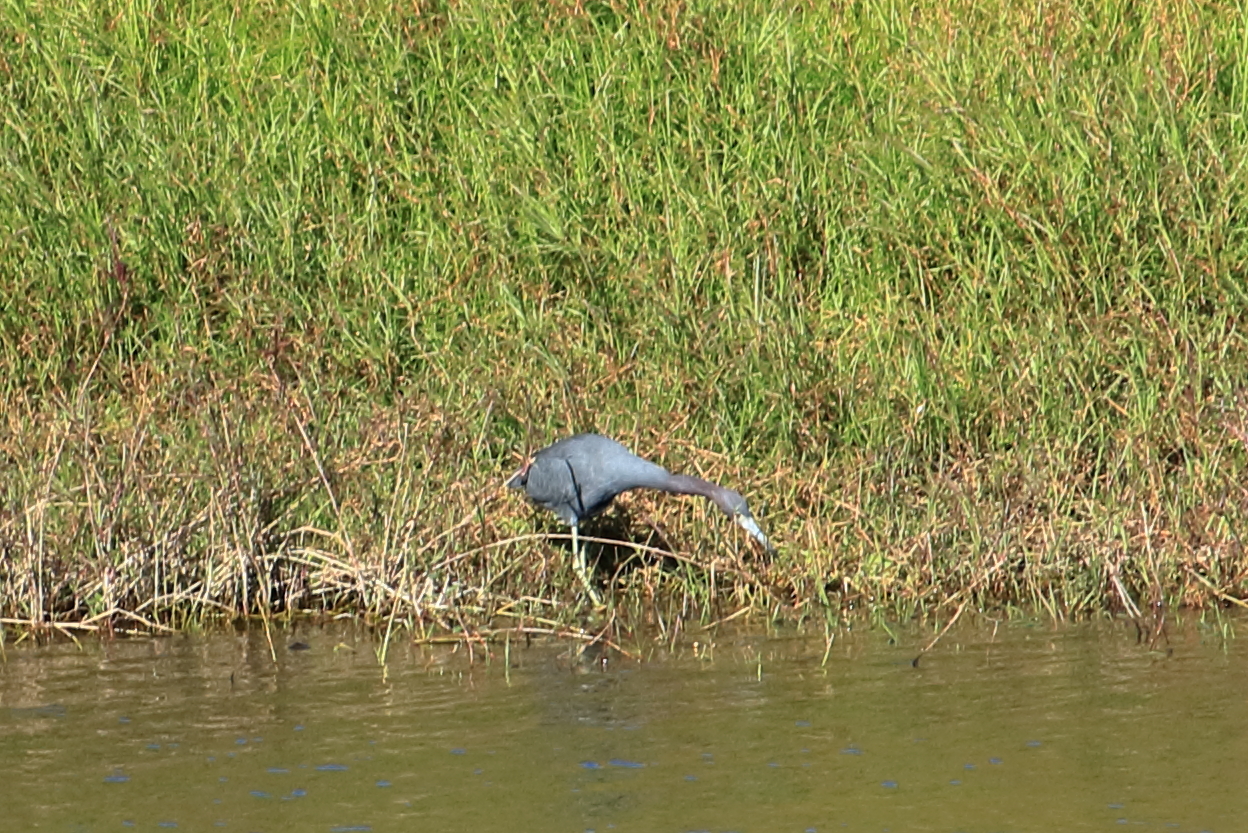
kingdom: Animalia
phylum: Chordata
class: Aves
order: Pelecaniformes
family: Ardeidae
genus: Egretta
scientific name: Egretta caerulea
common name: Little blue heron
